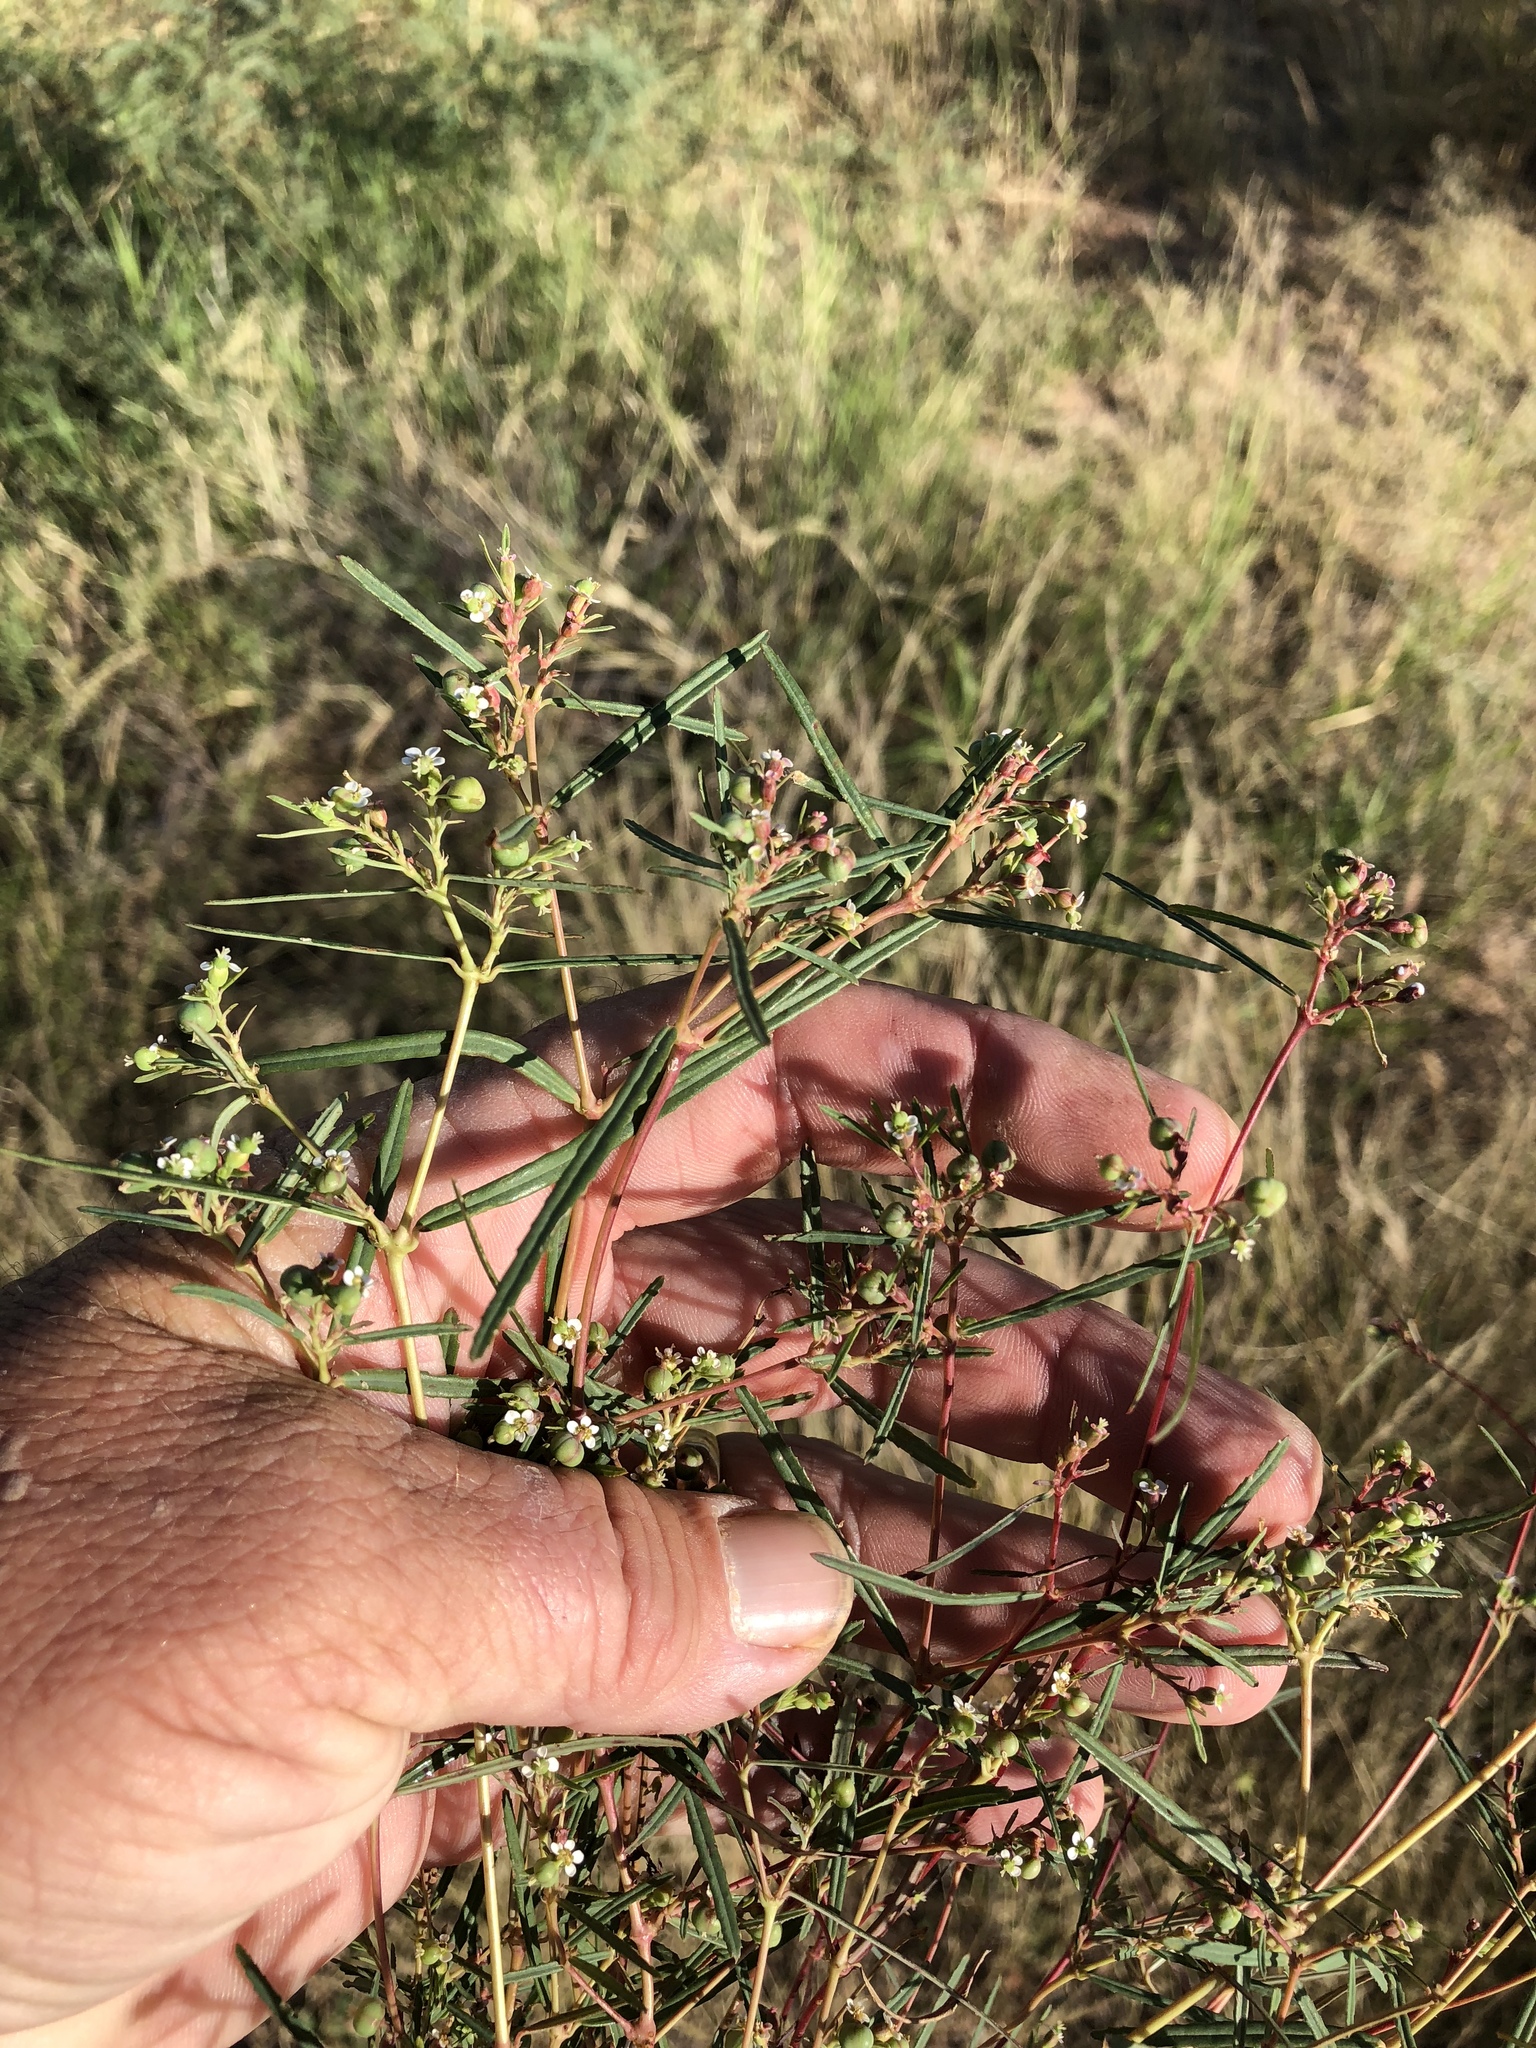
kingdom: Plantae
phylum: Tracheophyta
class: Magnoliopsida
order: Malpighiales
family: Euphorbiaceae
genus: Euphorbia
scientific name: Euphorbia florida
